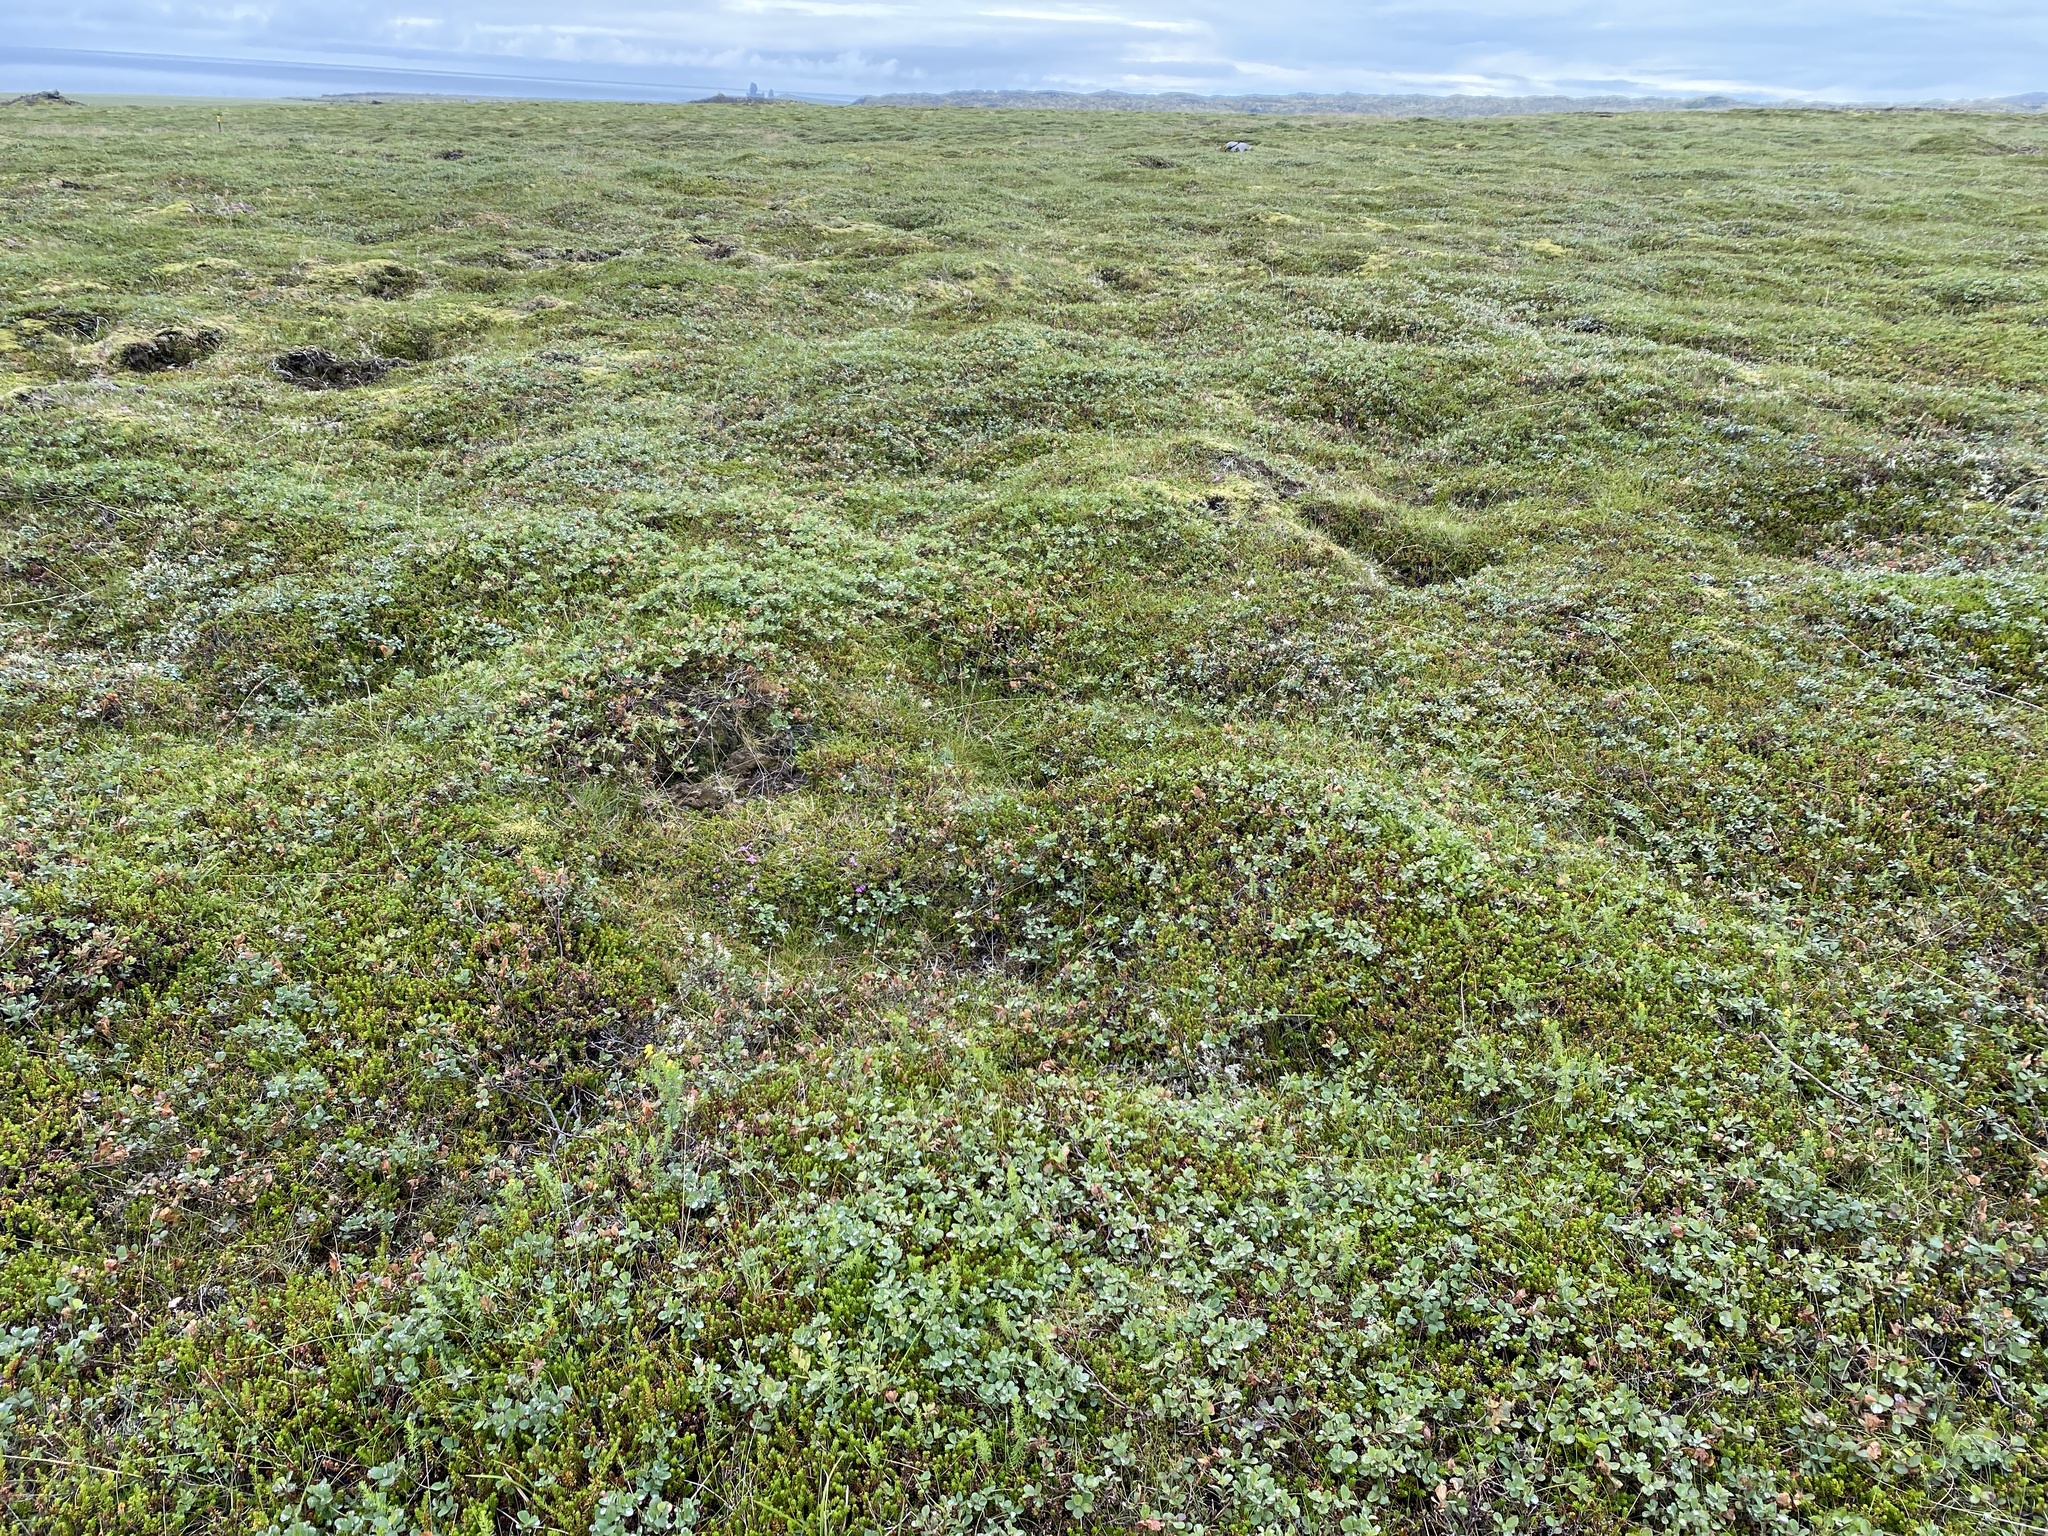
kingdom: Plantae
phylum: Tracheophyta
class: Magnoliopsida
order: Malpighiales
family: Salicaceae
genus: Salix
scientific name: Salix herbacea
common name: Dwarf willow
